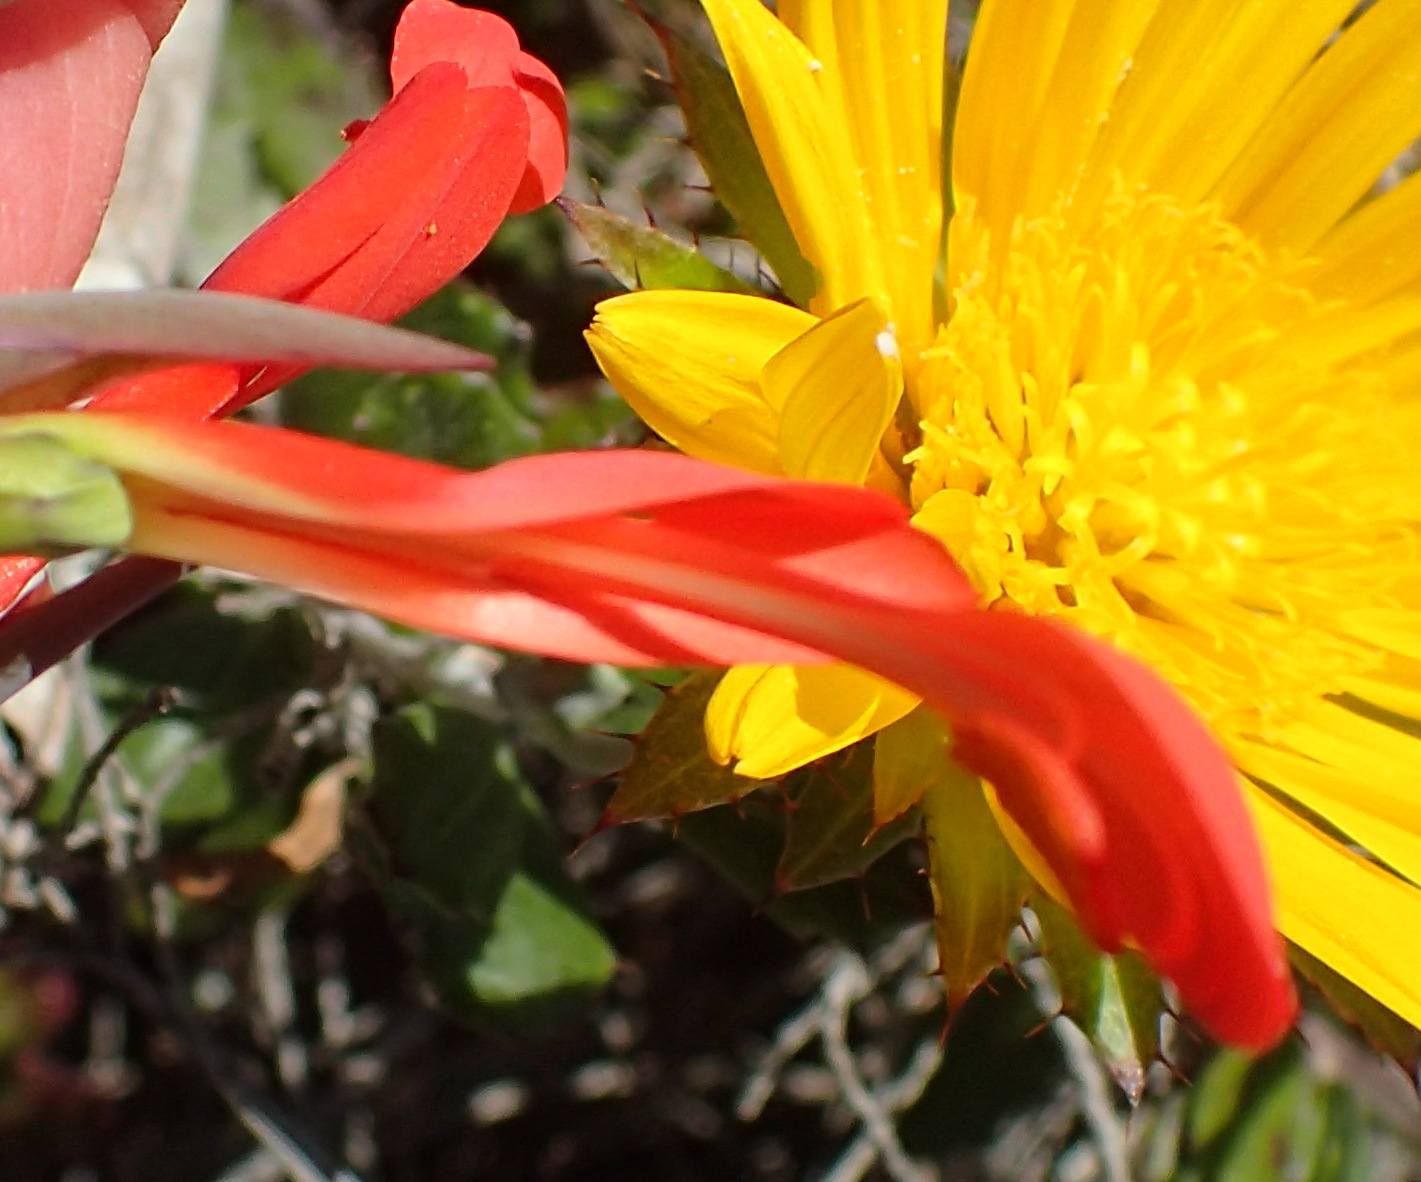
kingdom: Plantae
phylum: Tracheophyta
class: Liliopsida
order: Asparagales
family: Iridaceae
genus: Gladiolus
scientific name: Gladiolus cunonius
